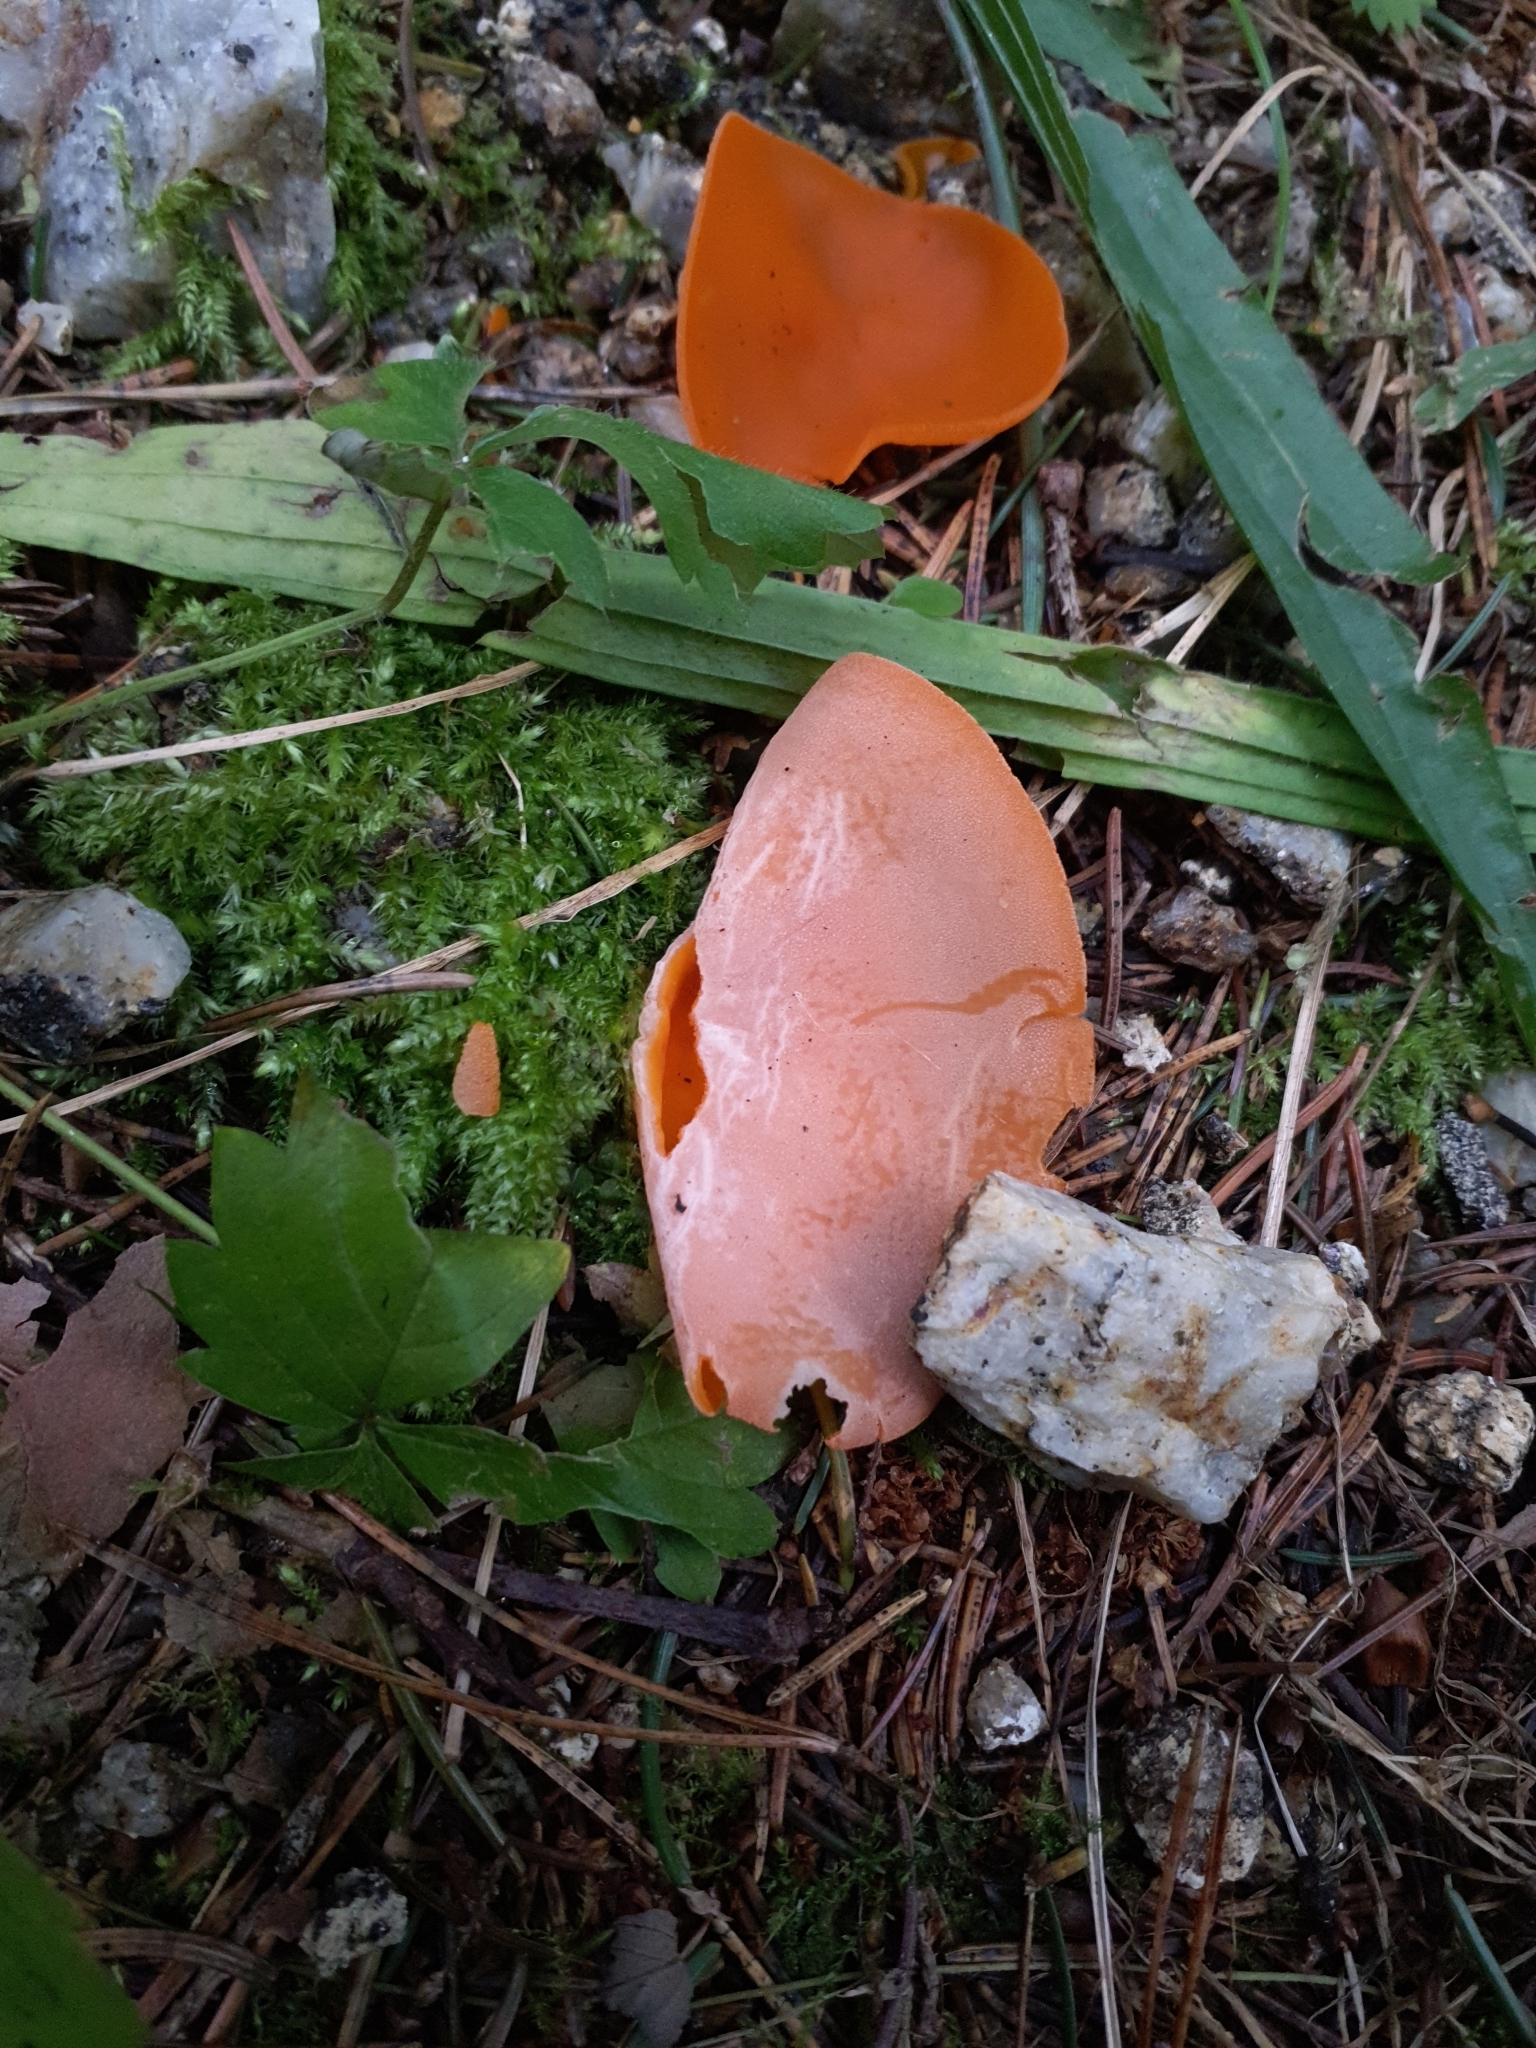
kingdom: Fungi
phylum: Ascomycota
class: Pezizomycetes
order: Pezizales
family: Pyronemataceae
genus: Aleuria
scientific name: Aleuria aurantia
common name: Orange peel fungus
